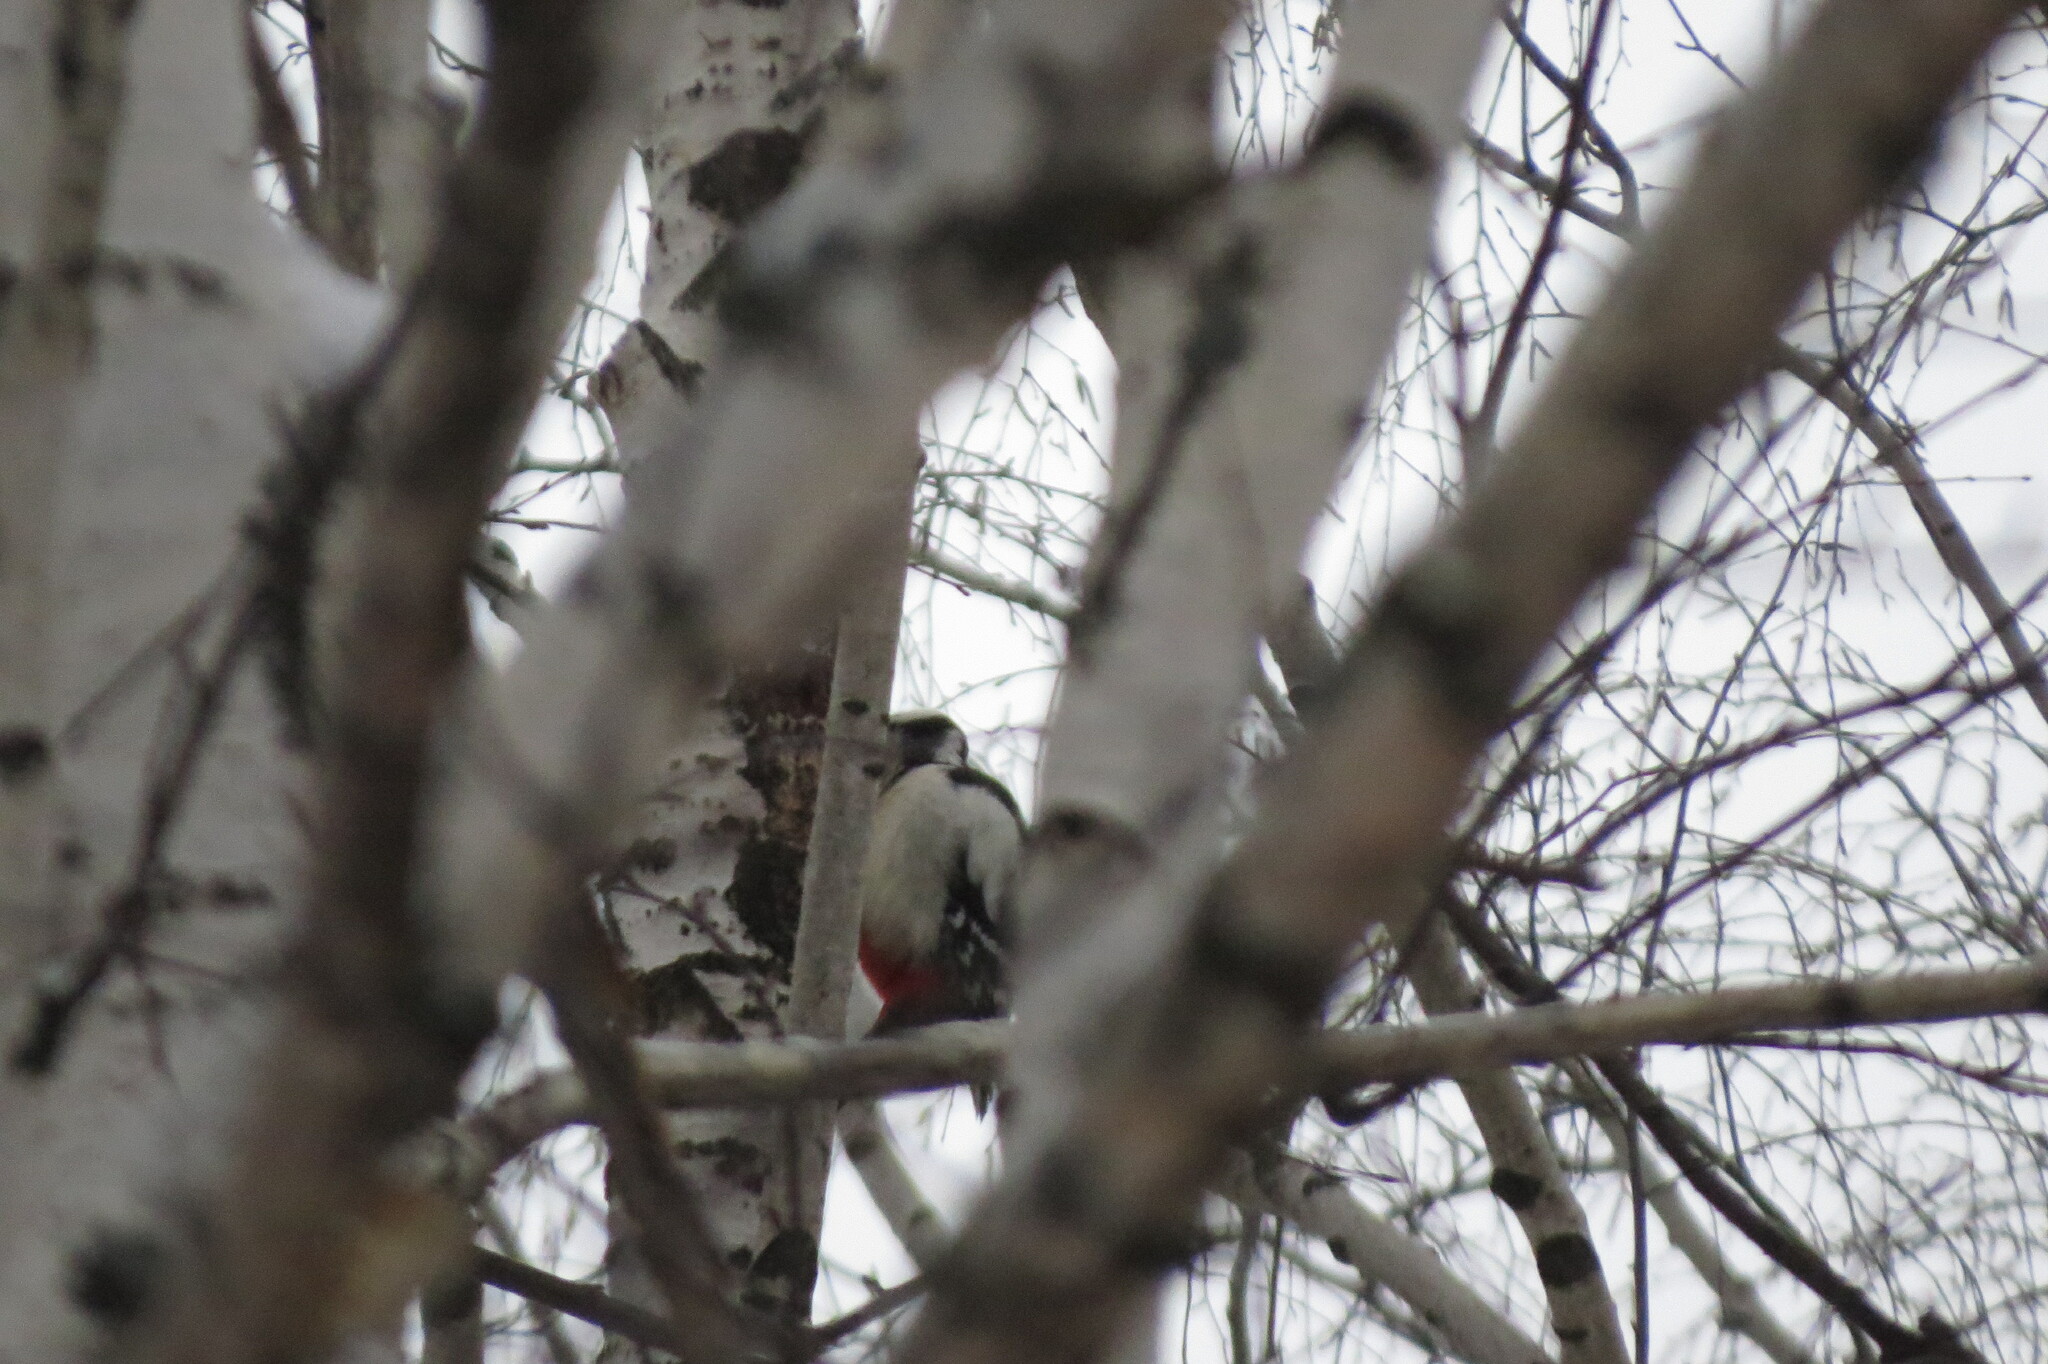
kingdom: Animalia
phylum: Chordata
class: Aves
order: Piciformes
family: Picidae
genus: Dendrocopos
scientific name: Dendrocopos major
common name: Great spotted woodpecker
